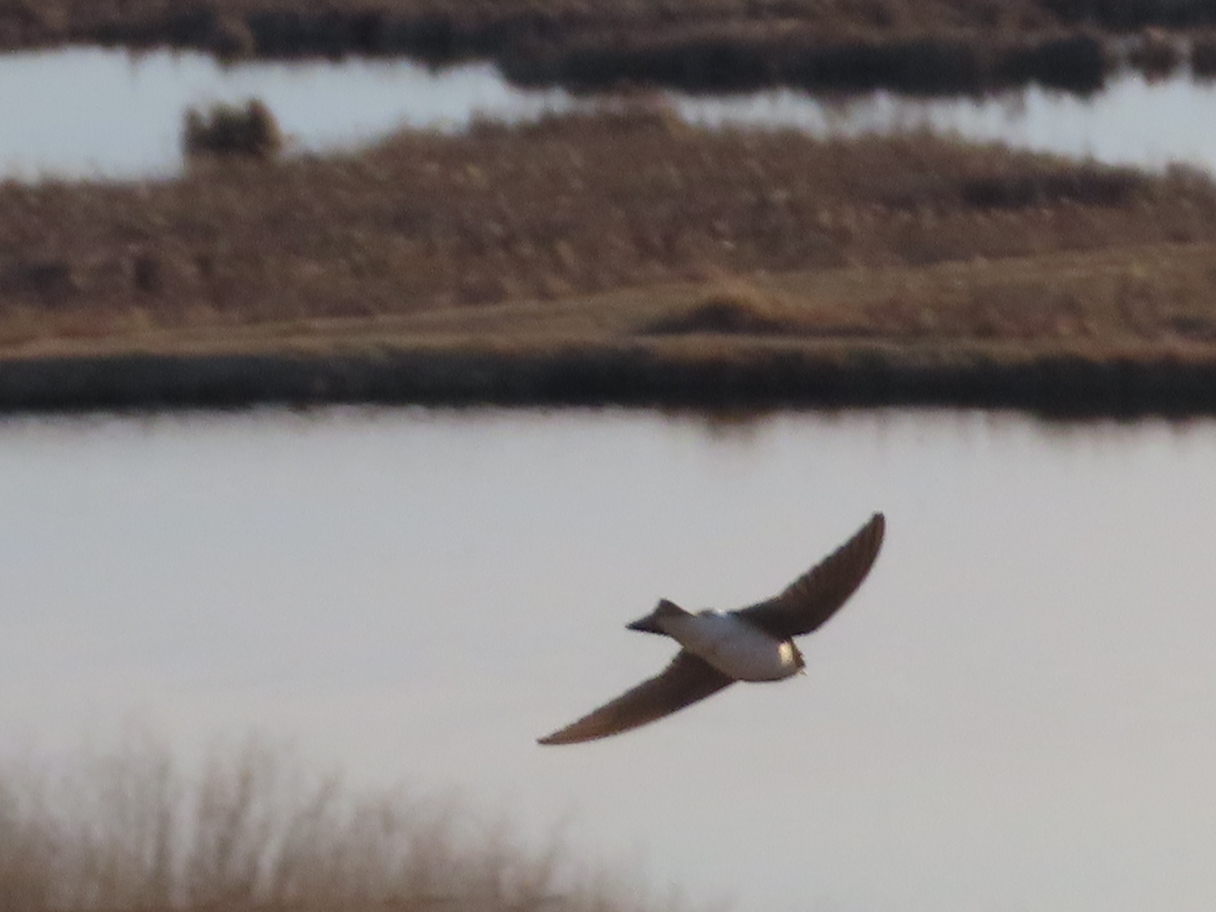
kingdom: Animalia
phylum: Chordata
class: Aves
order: Passeriformes
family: Hirundinidae
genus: Tachycineta
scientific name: Tachycineta bicolor
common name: Tree swallow
